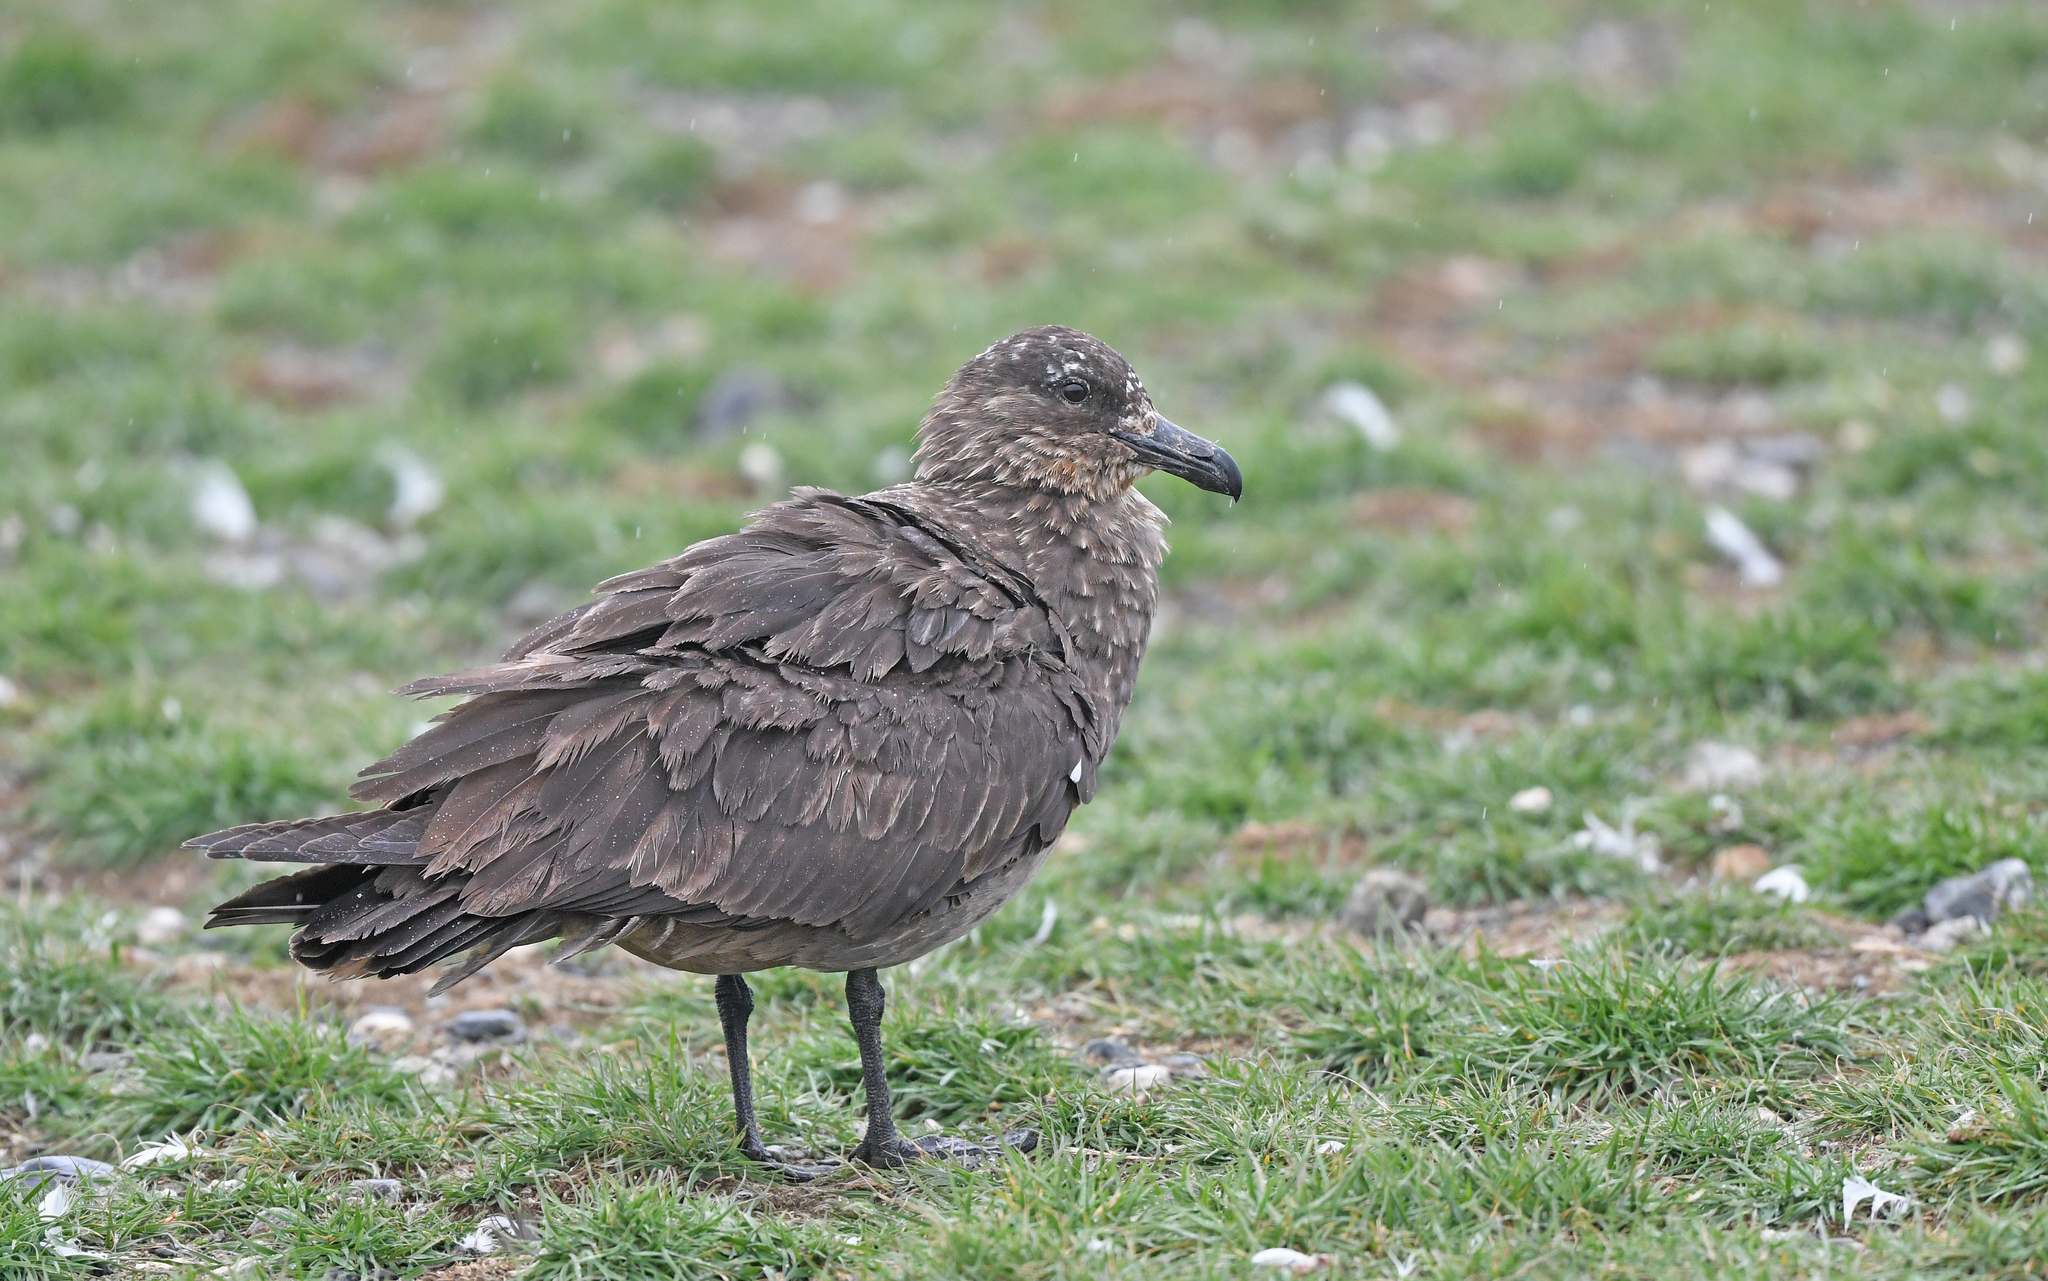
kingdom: Animalia
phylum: Chordata
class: Aves
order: Charadriiformes
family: Stercorariidae
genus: Stercorarius
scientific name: Stercorarius chilensis
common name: Chilean skua
